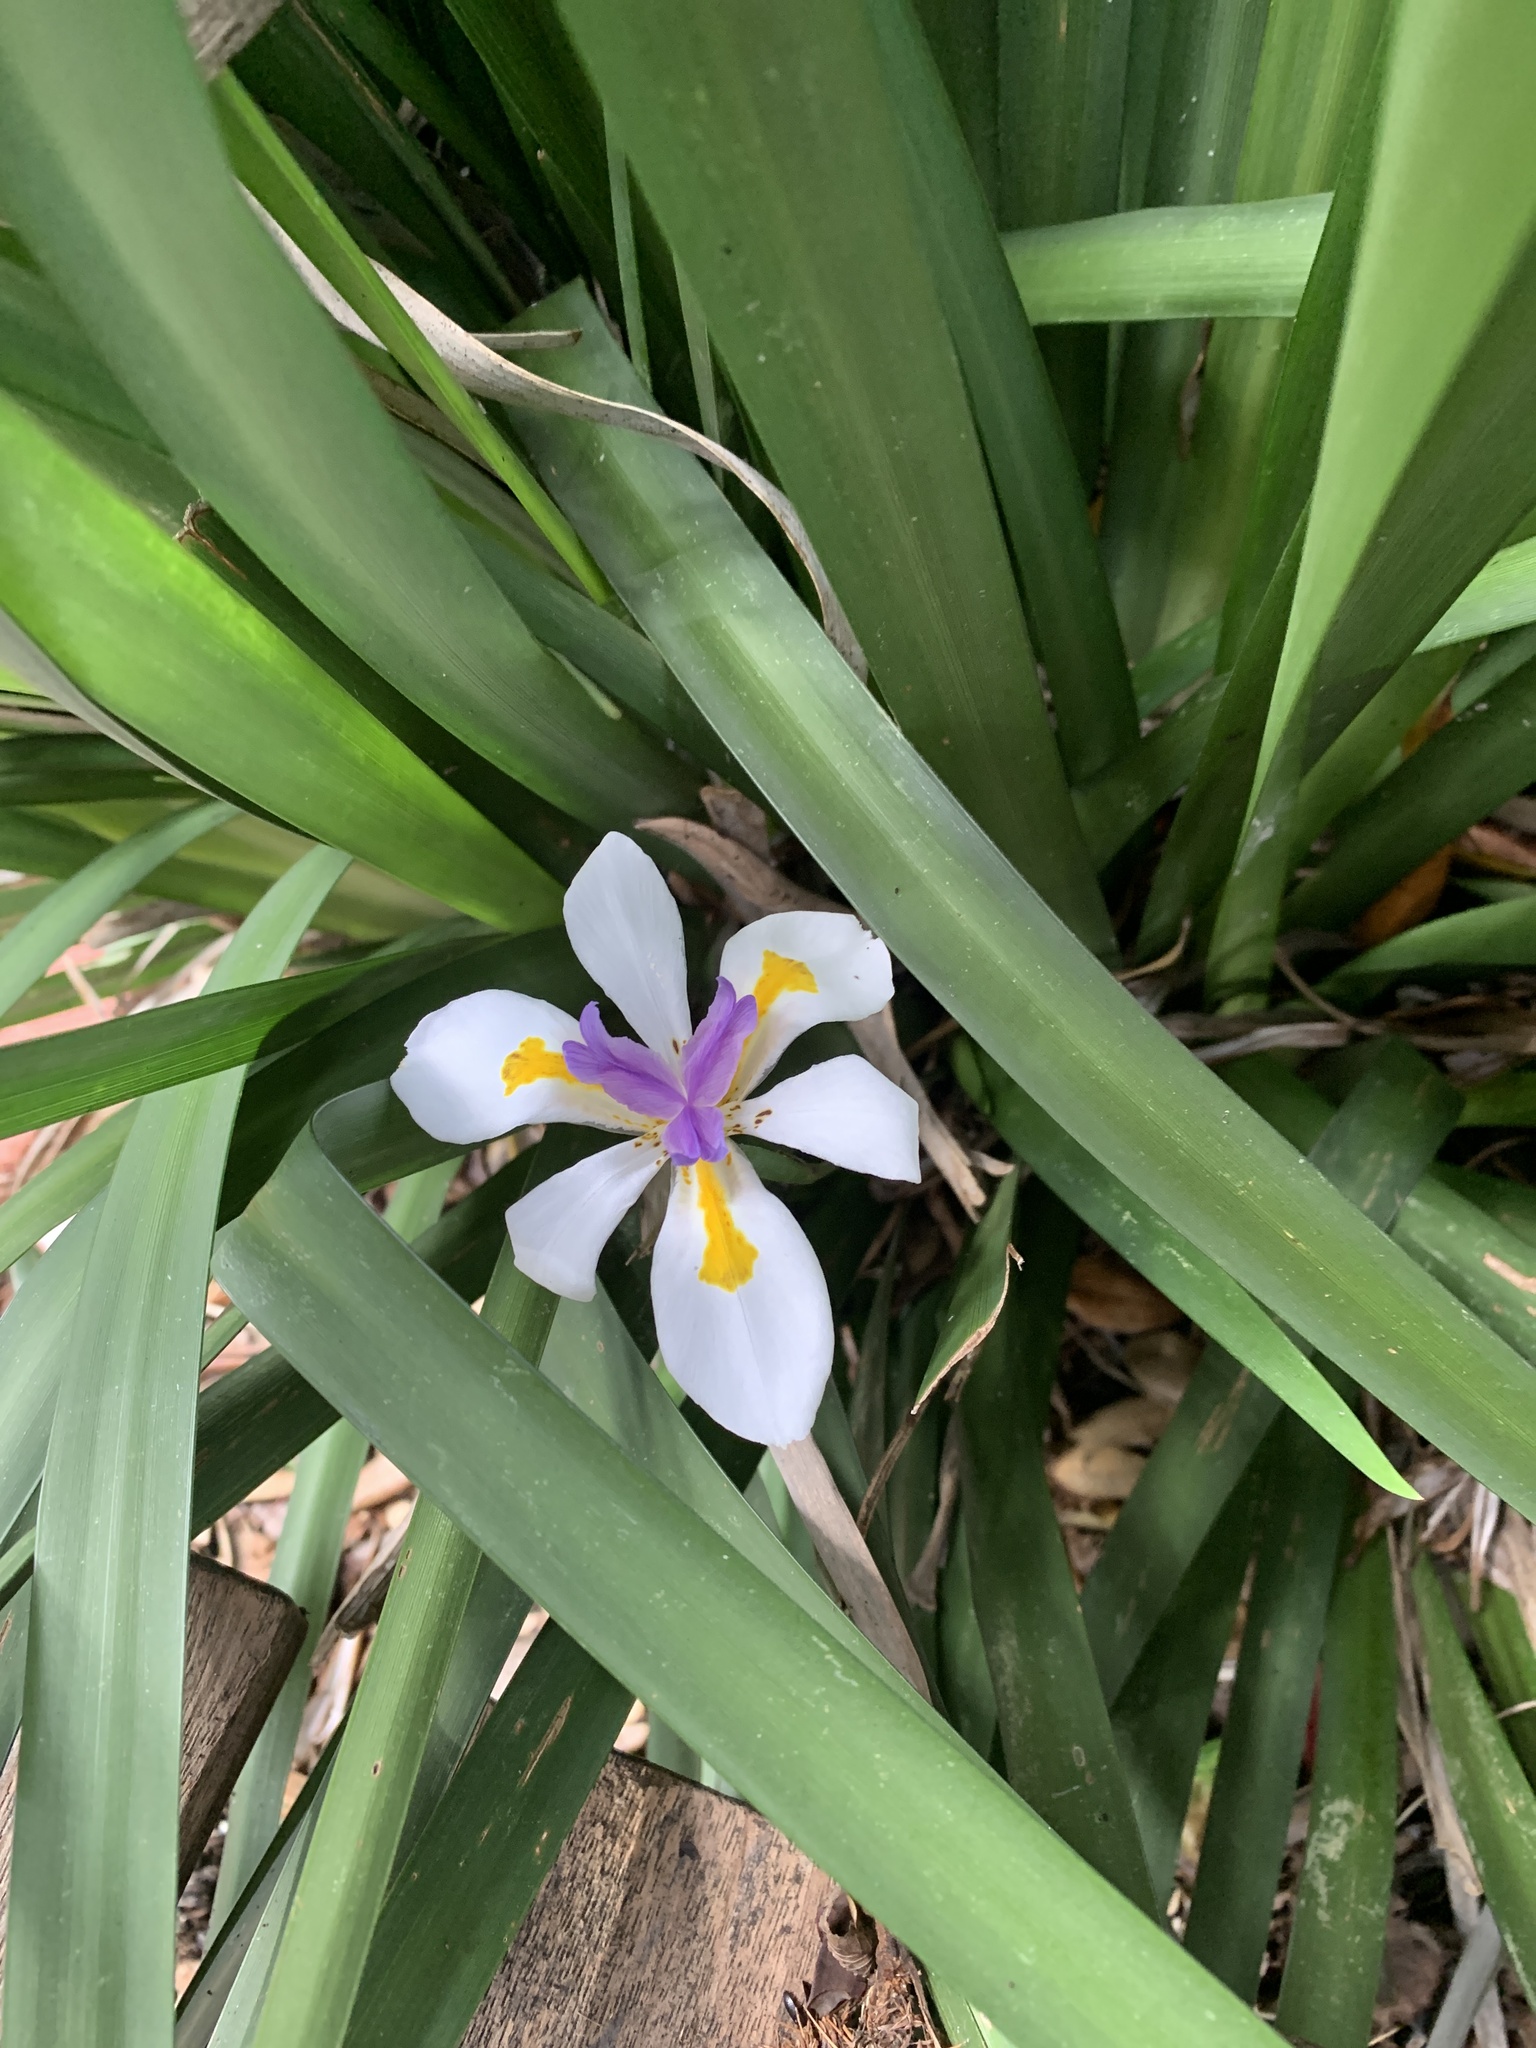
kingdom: Plantae
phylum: Tracheophyta
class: Liliopsida
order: Asparagales
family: Iridaceae
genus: Dietes
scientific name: Dietes grandiflora
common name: Wild iris
